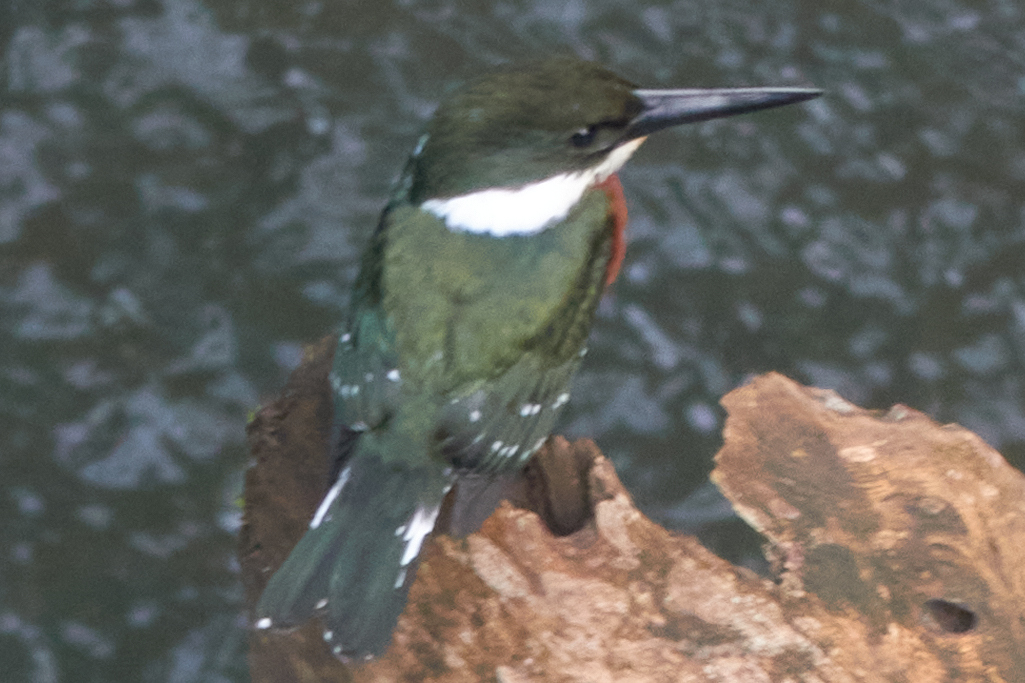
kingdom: Animalia
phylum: Chordata
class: Aves
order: Coraciiformes
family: Alcedinidae
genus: Chloroceryle
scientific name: Chloroceryle americana
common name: Green kingfisher
